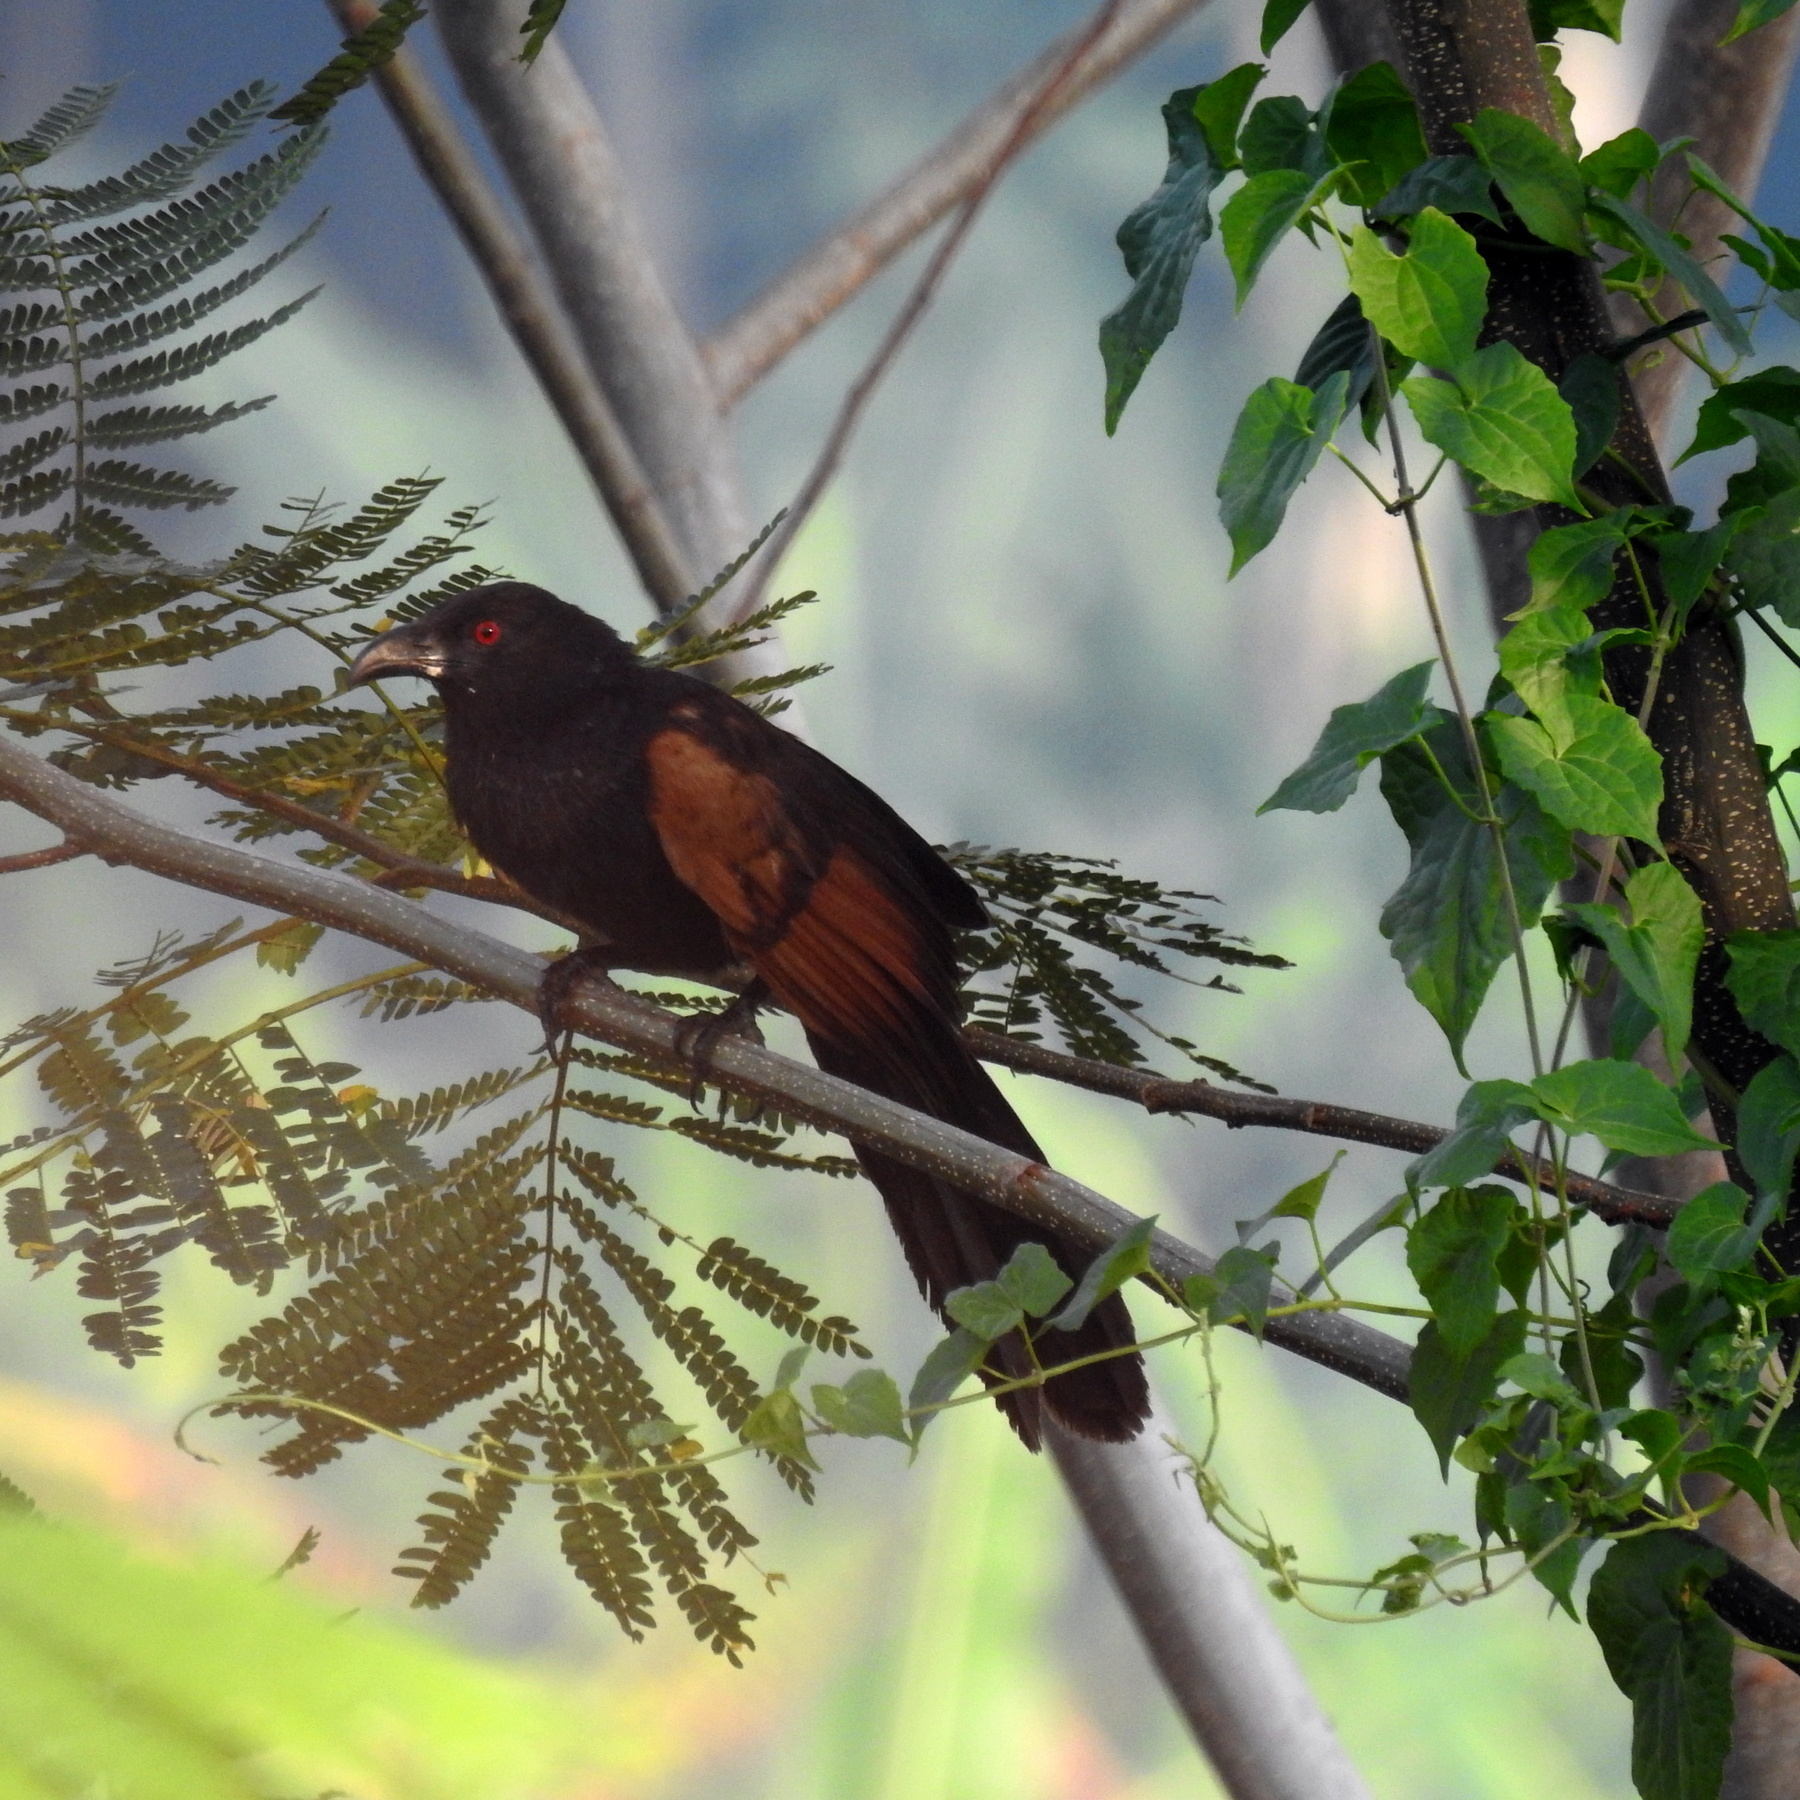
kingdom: Animalia
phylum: Chordata
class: Aves
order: Cuculiformes
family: Cuculidae
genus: Centropus
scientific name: Centropus nigrorufus
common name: Sunda coucal
